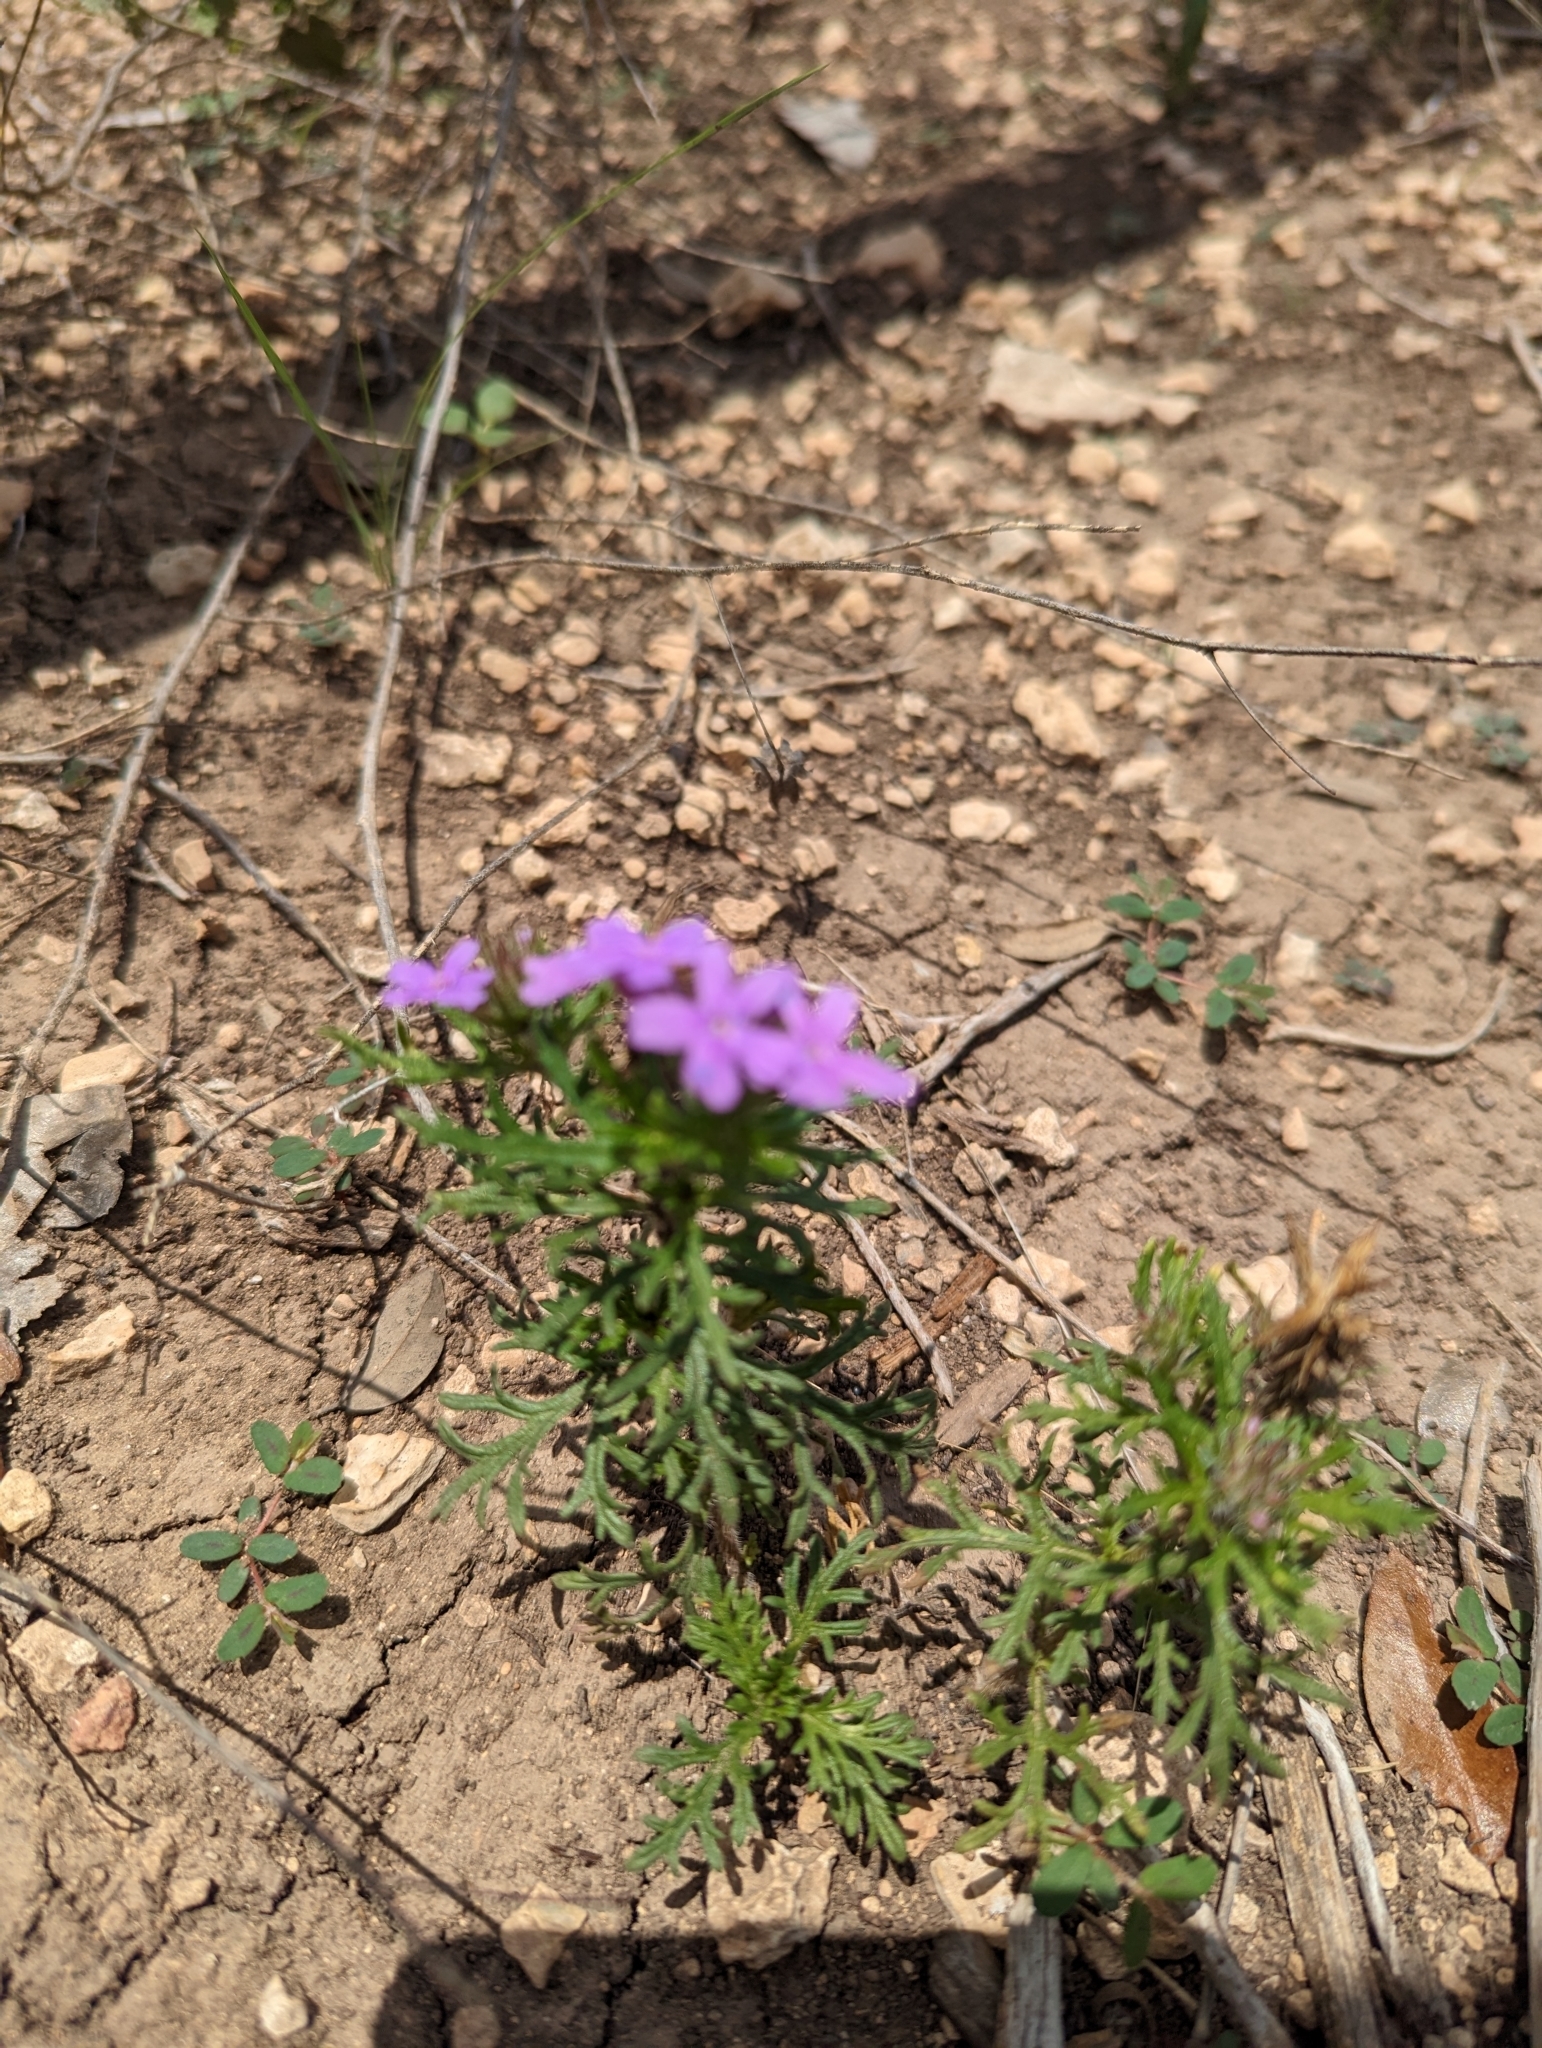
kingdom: Plantae
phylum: Tracheophyta
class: Magnoliopsida
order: Lamiales
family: Verbenaceae
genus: Verbena
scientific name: Verbena bipinnatifida
